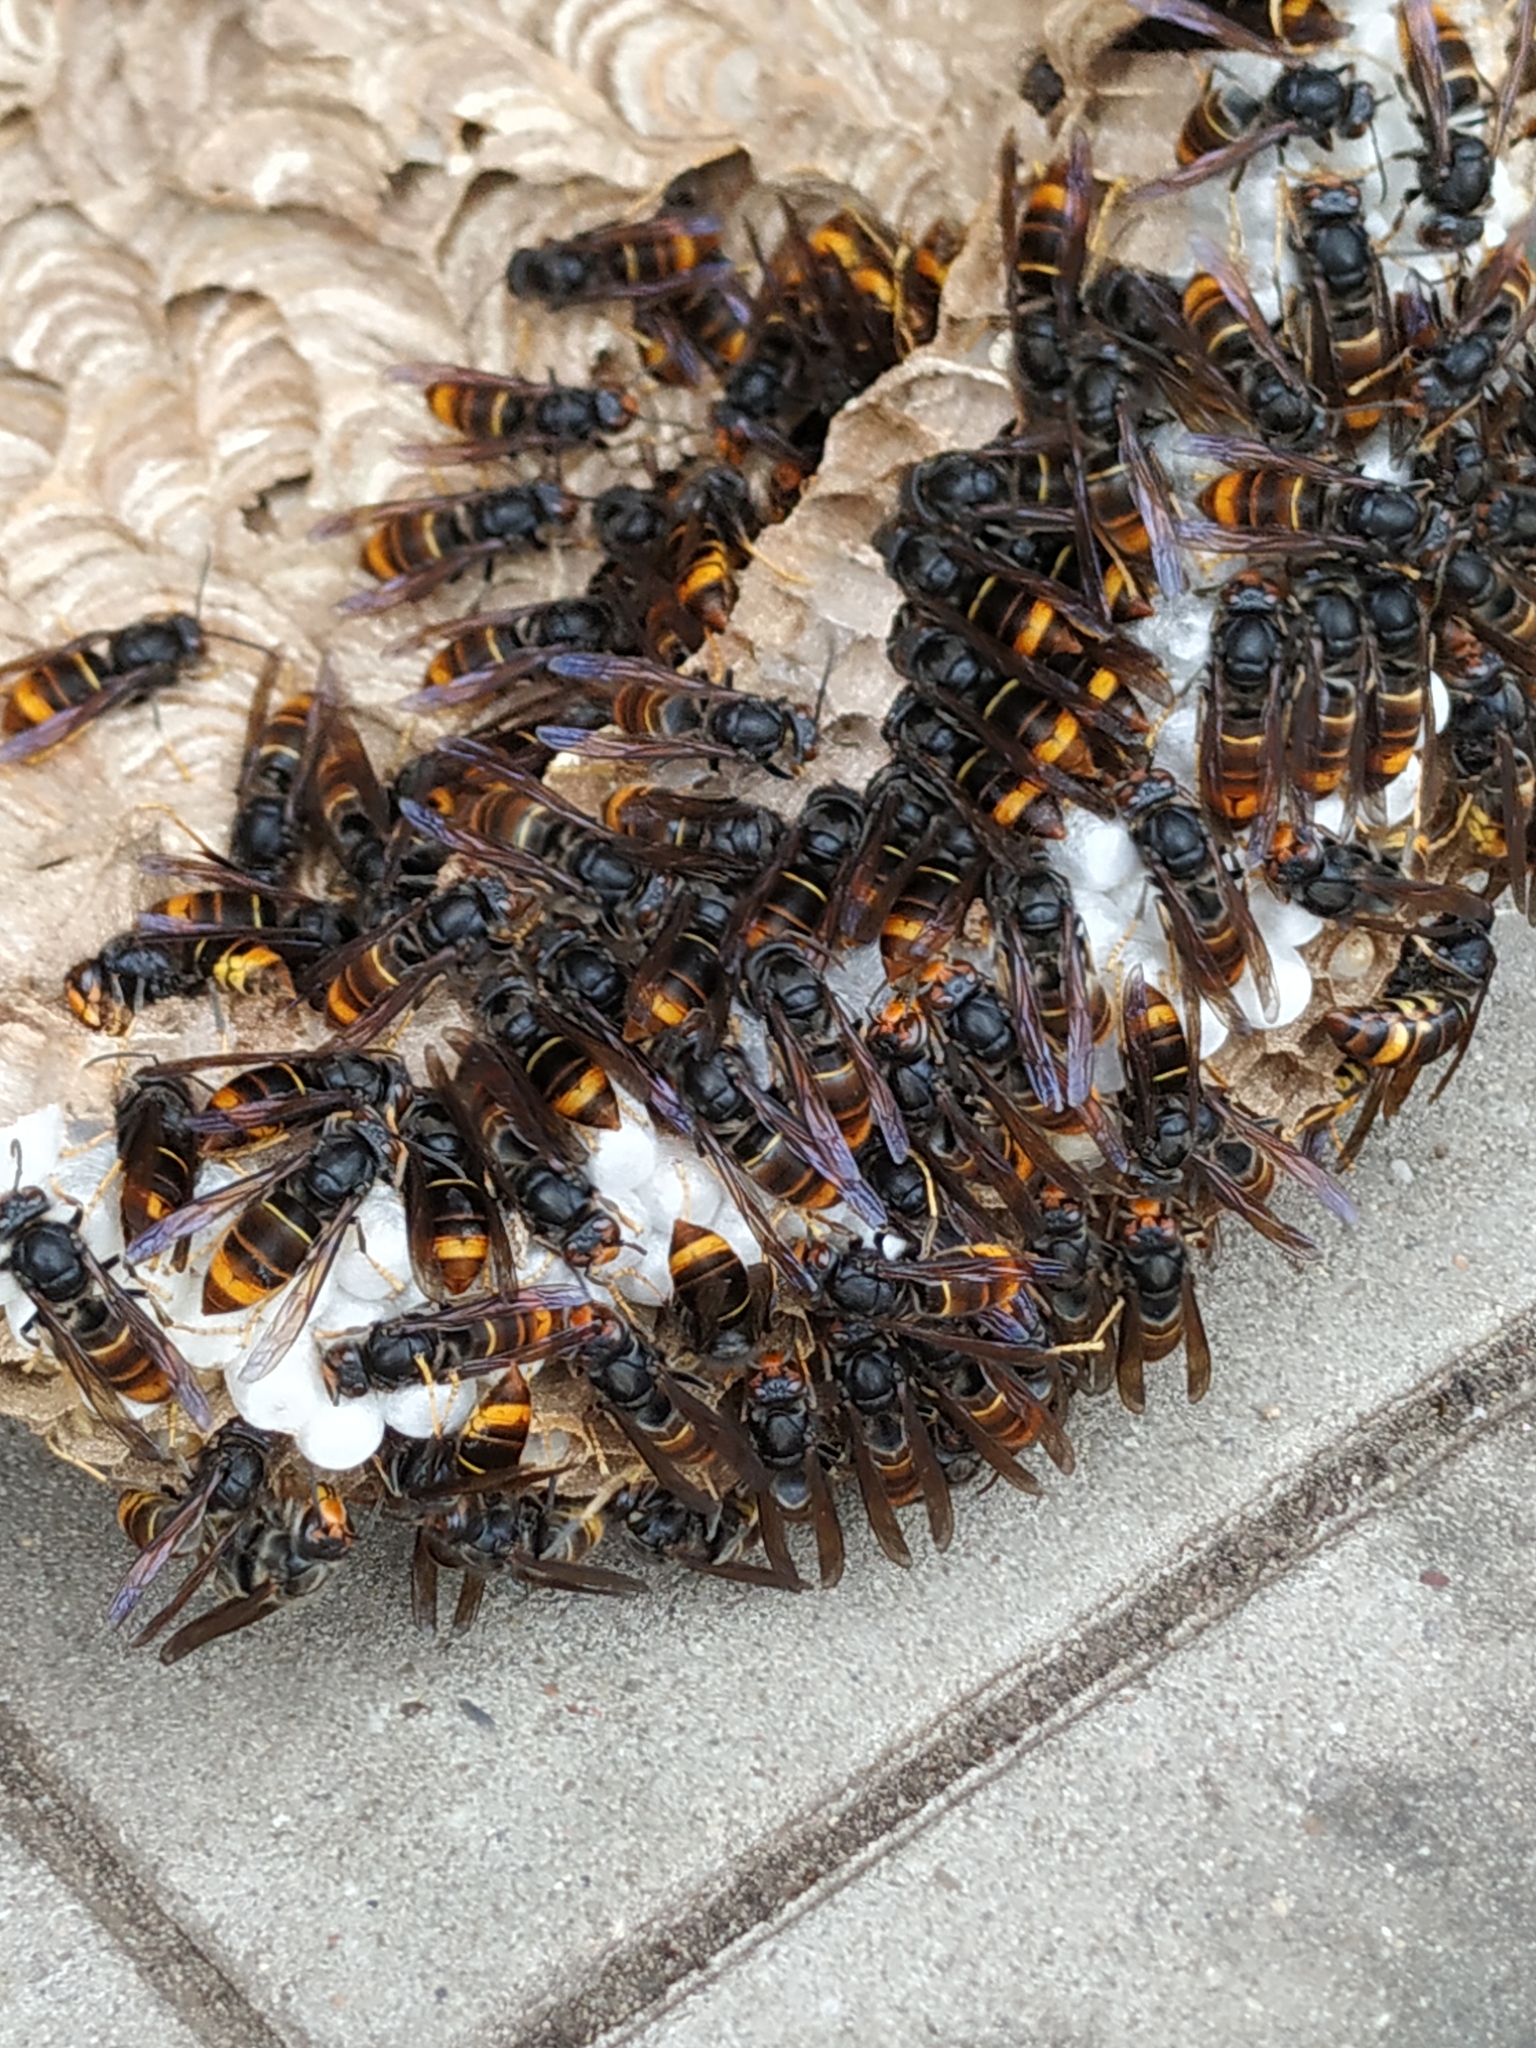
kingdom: Animalia
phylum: Arthropoda
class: Insecta
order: Hymenoptera
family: Vespidae
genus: Vespa
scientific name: Vespa velutina
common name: Asian hornet
